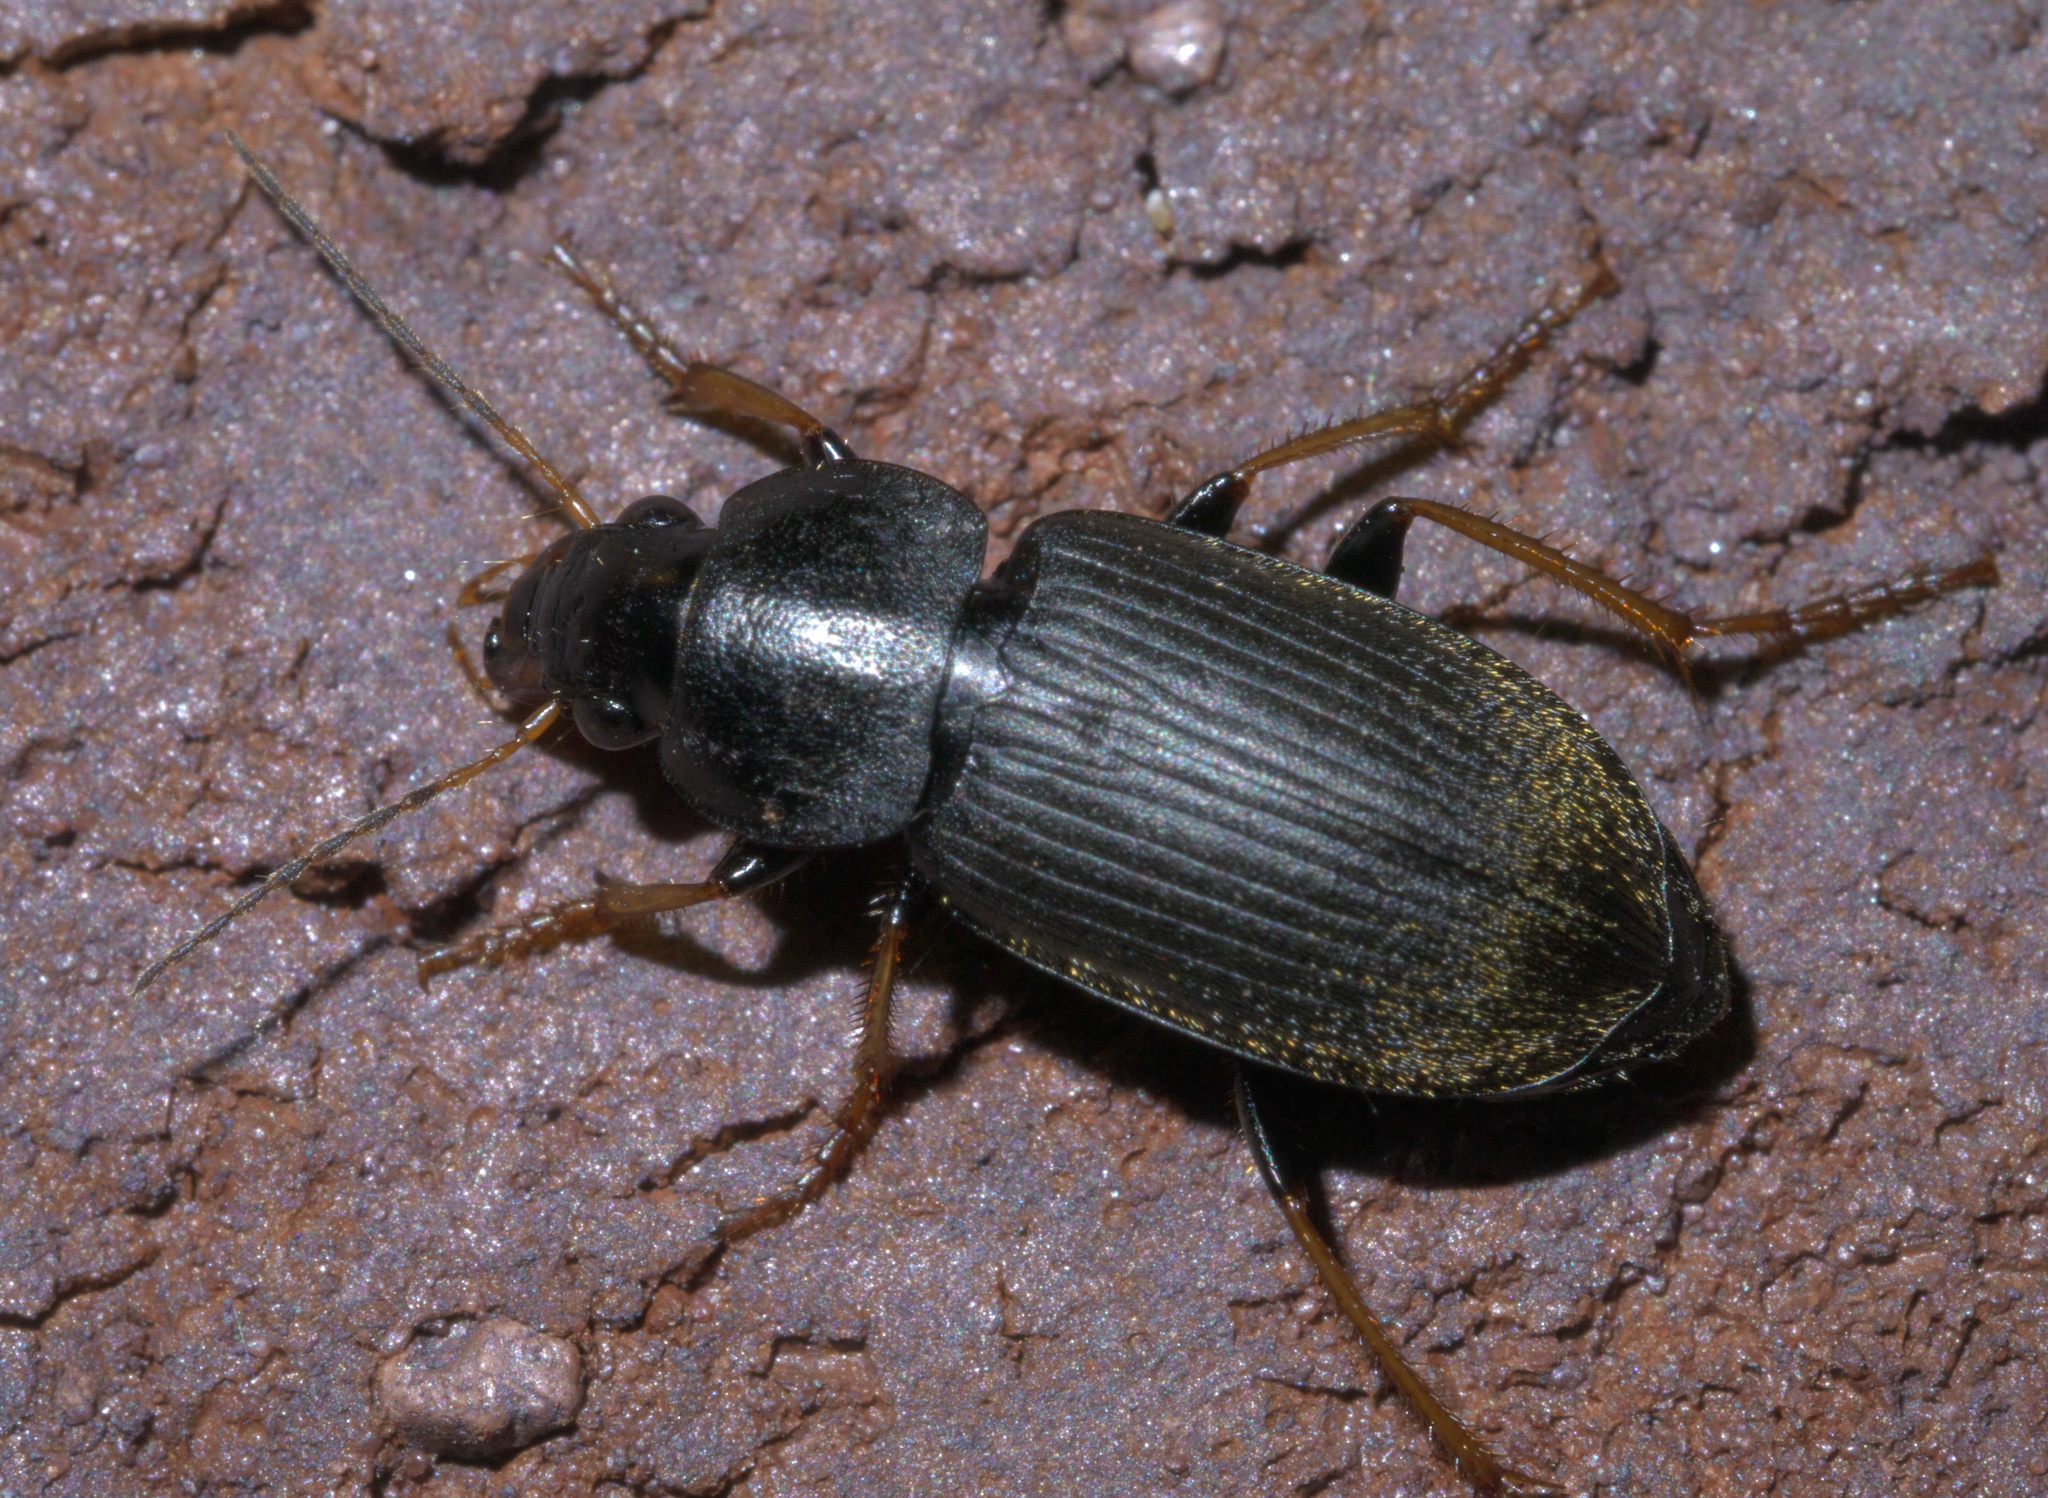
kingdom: Animalia
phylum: Arthropoda
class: Insecta
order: Coleoptera
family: Carabidae
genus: Amphasia
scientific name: Amphasia sericea
